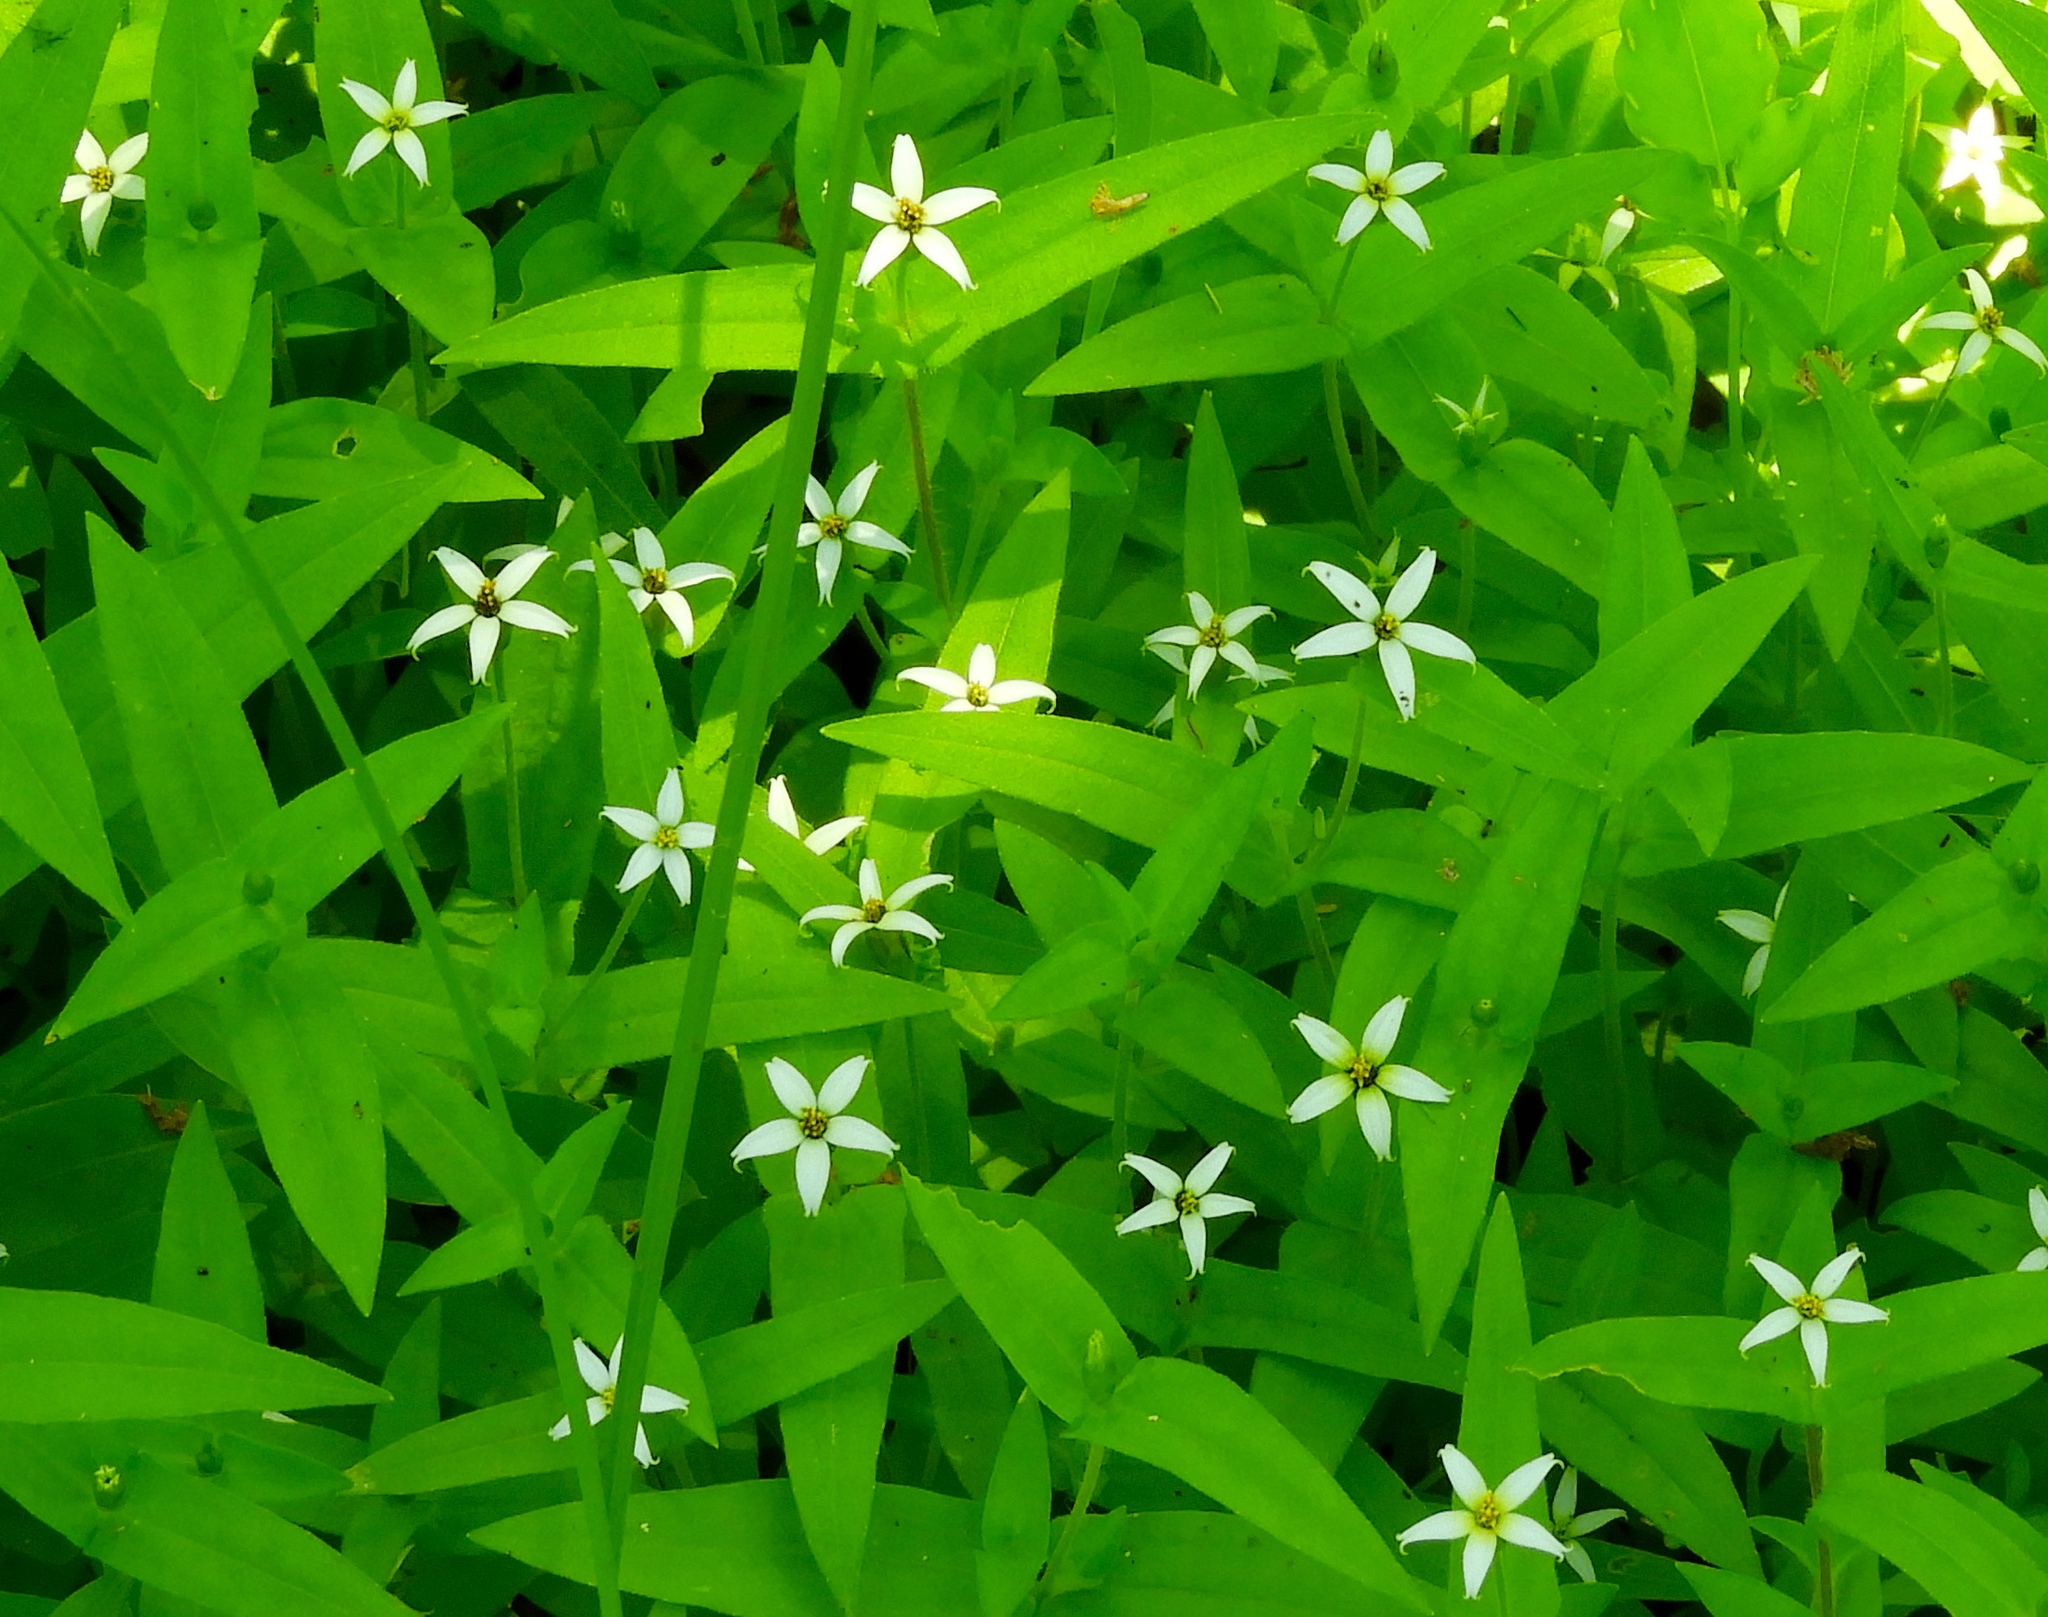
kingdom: Plantae
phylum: Tracheophyta
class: Magnoliopsida
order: Asterales
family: Asteraceae
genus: Zinnia
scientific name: Zinnia zinnioides
